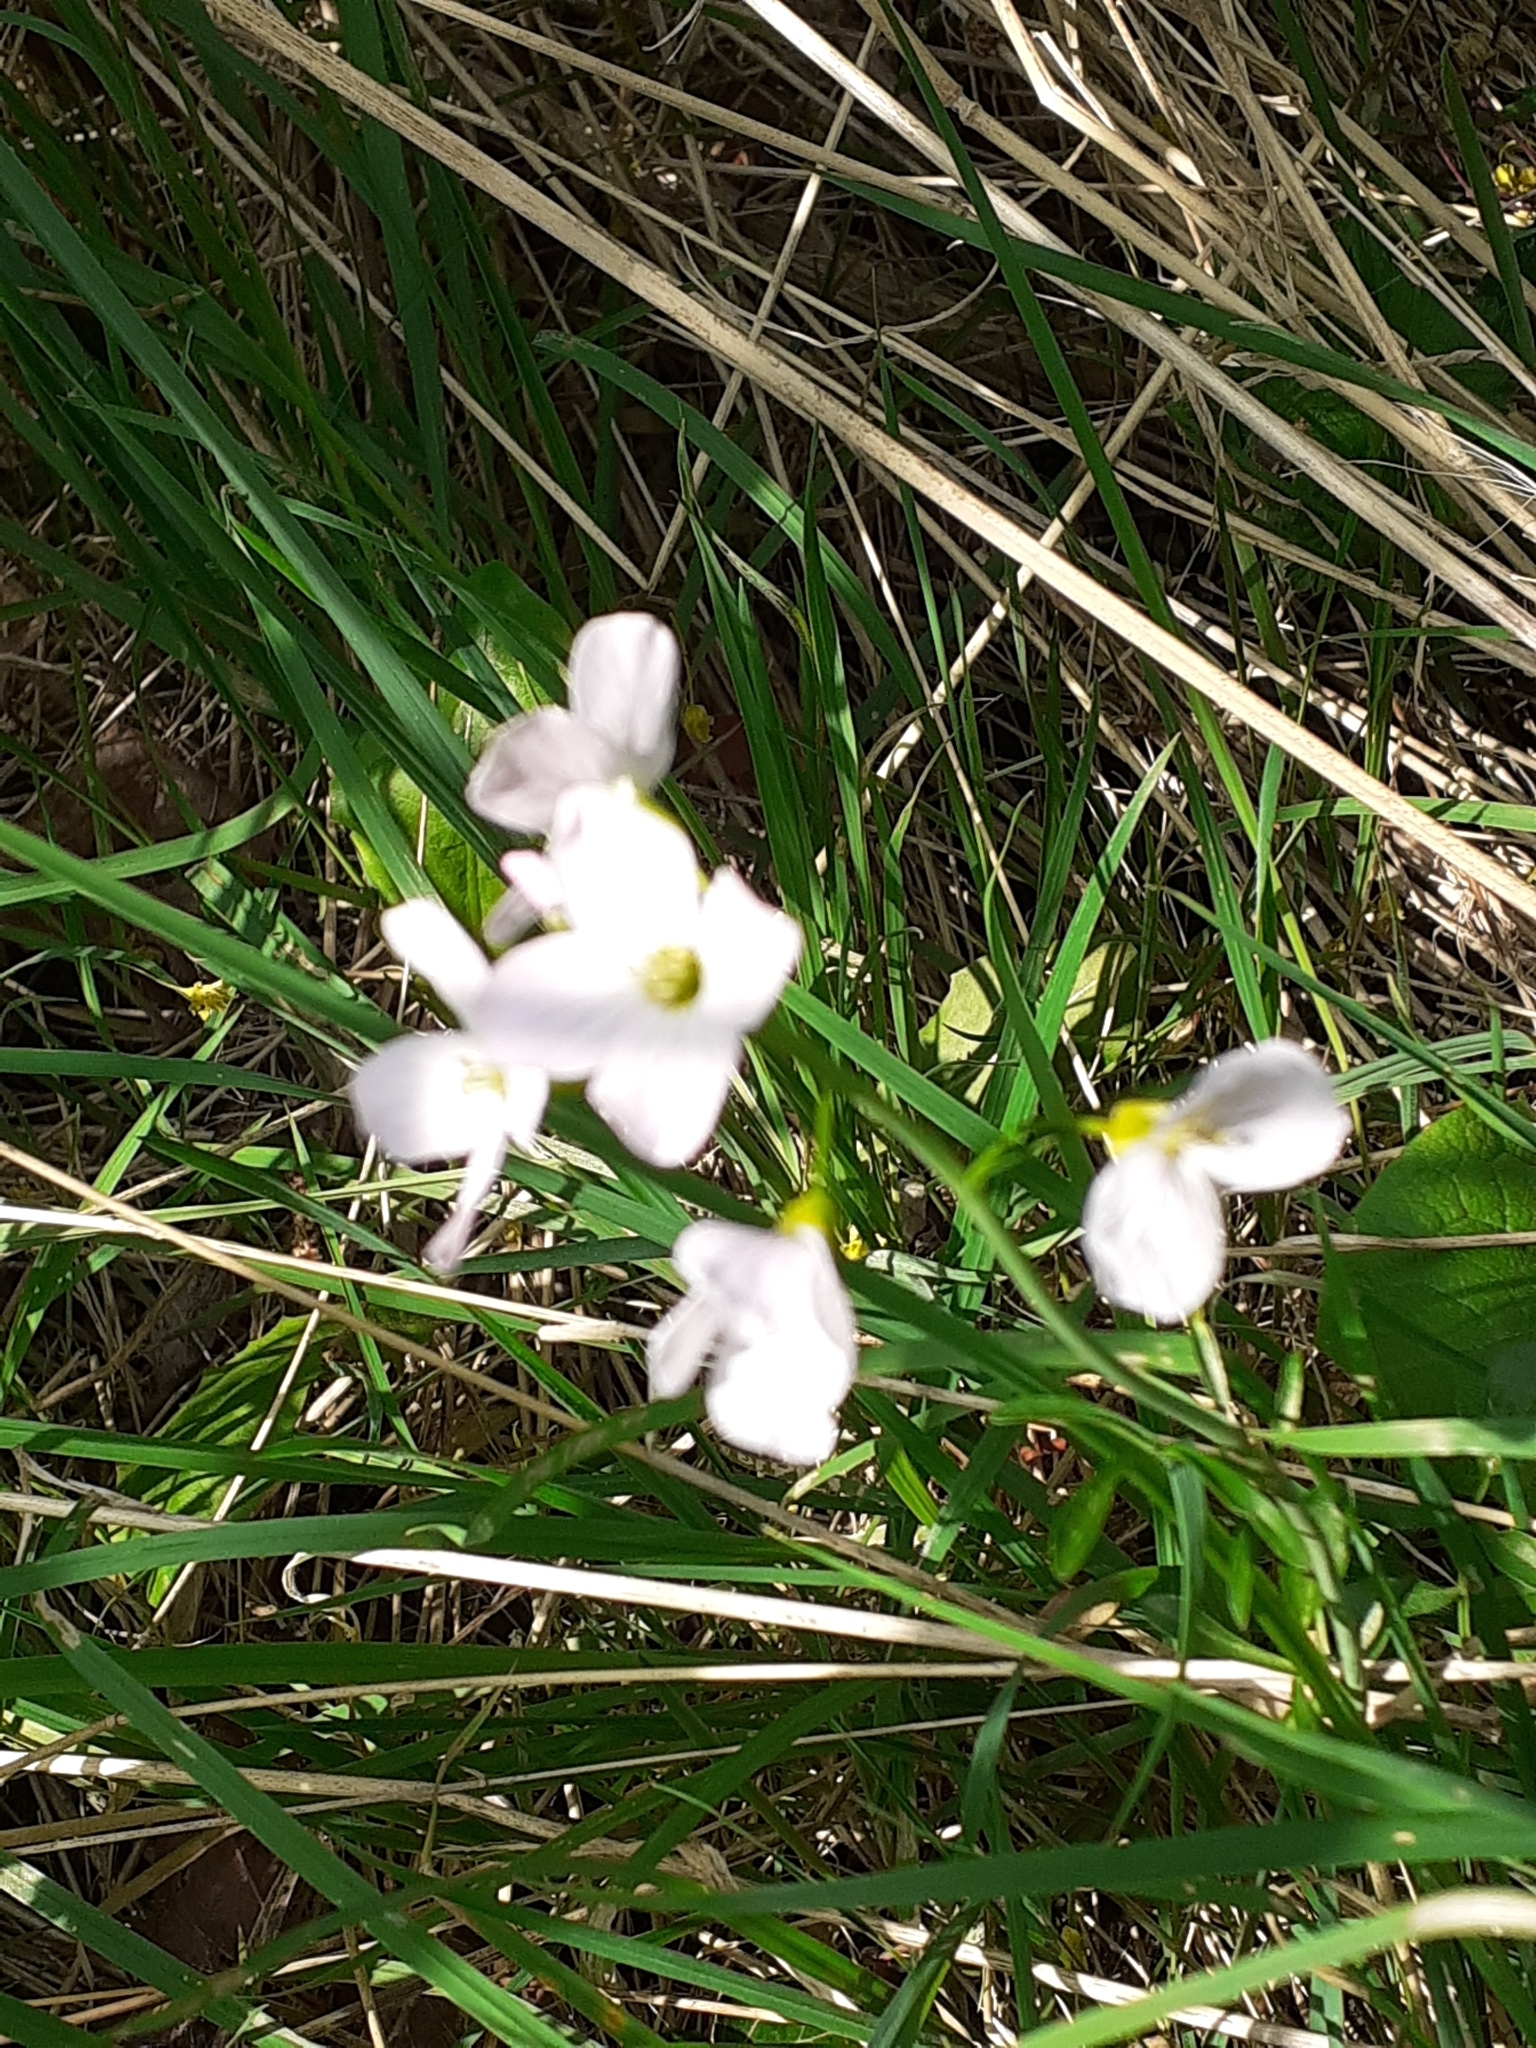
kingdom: Plantae
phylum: Tracheophyta
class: Magnoliopsida
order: Brassicales
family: Brassicaceae
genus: Cardamine
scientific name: Cardamine pratensis
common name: Cuckoo flower
